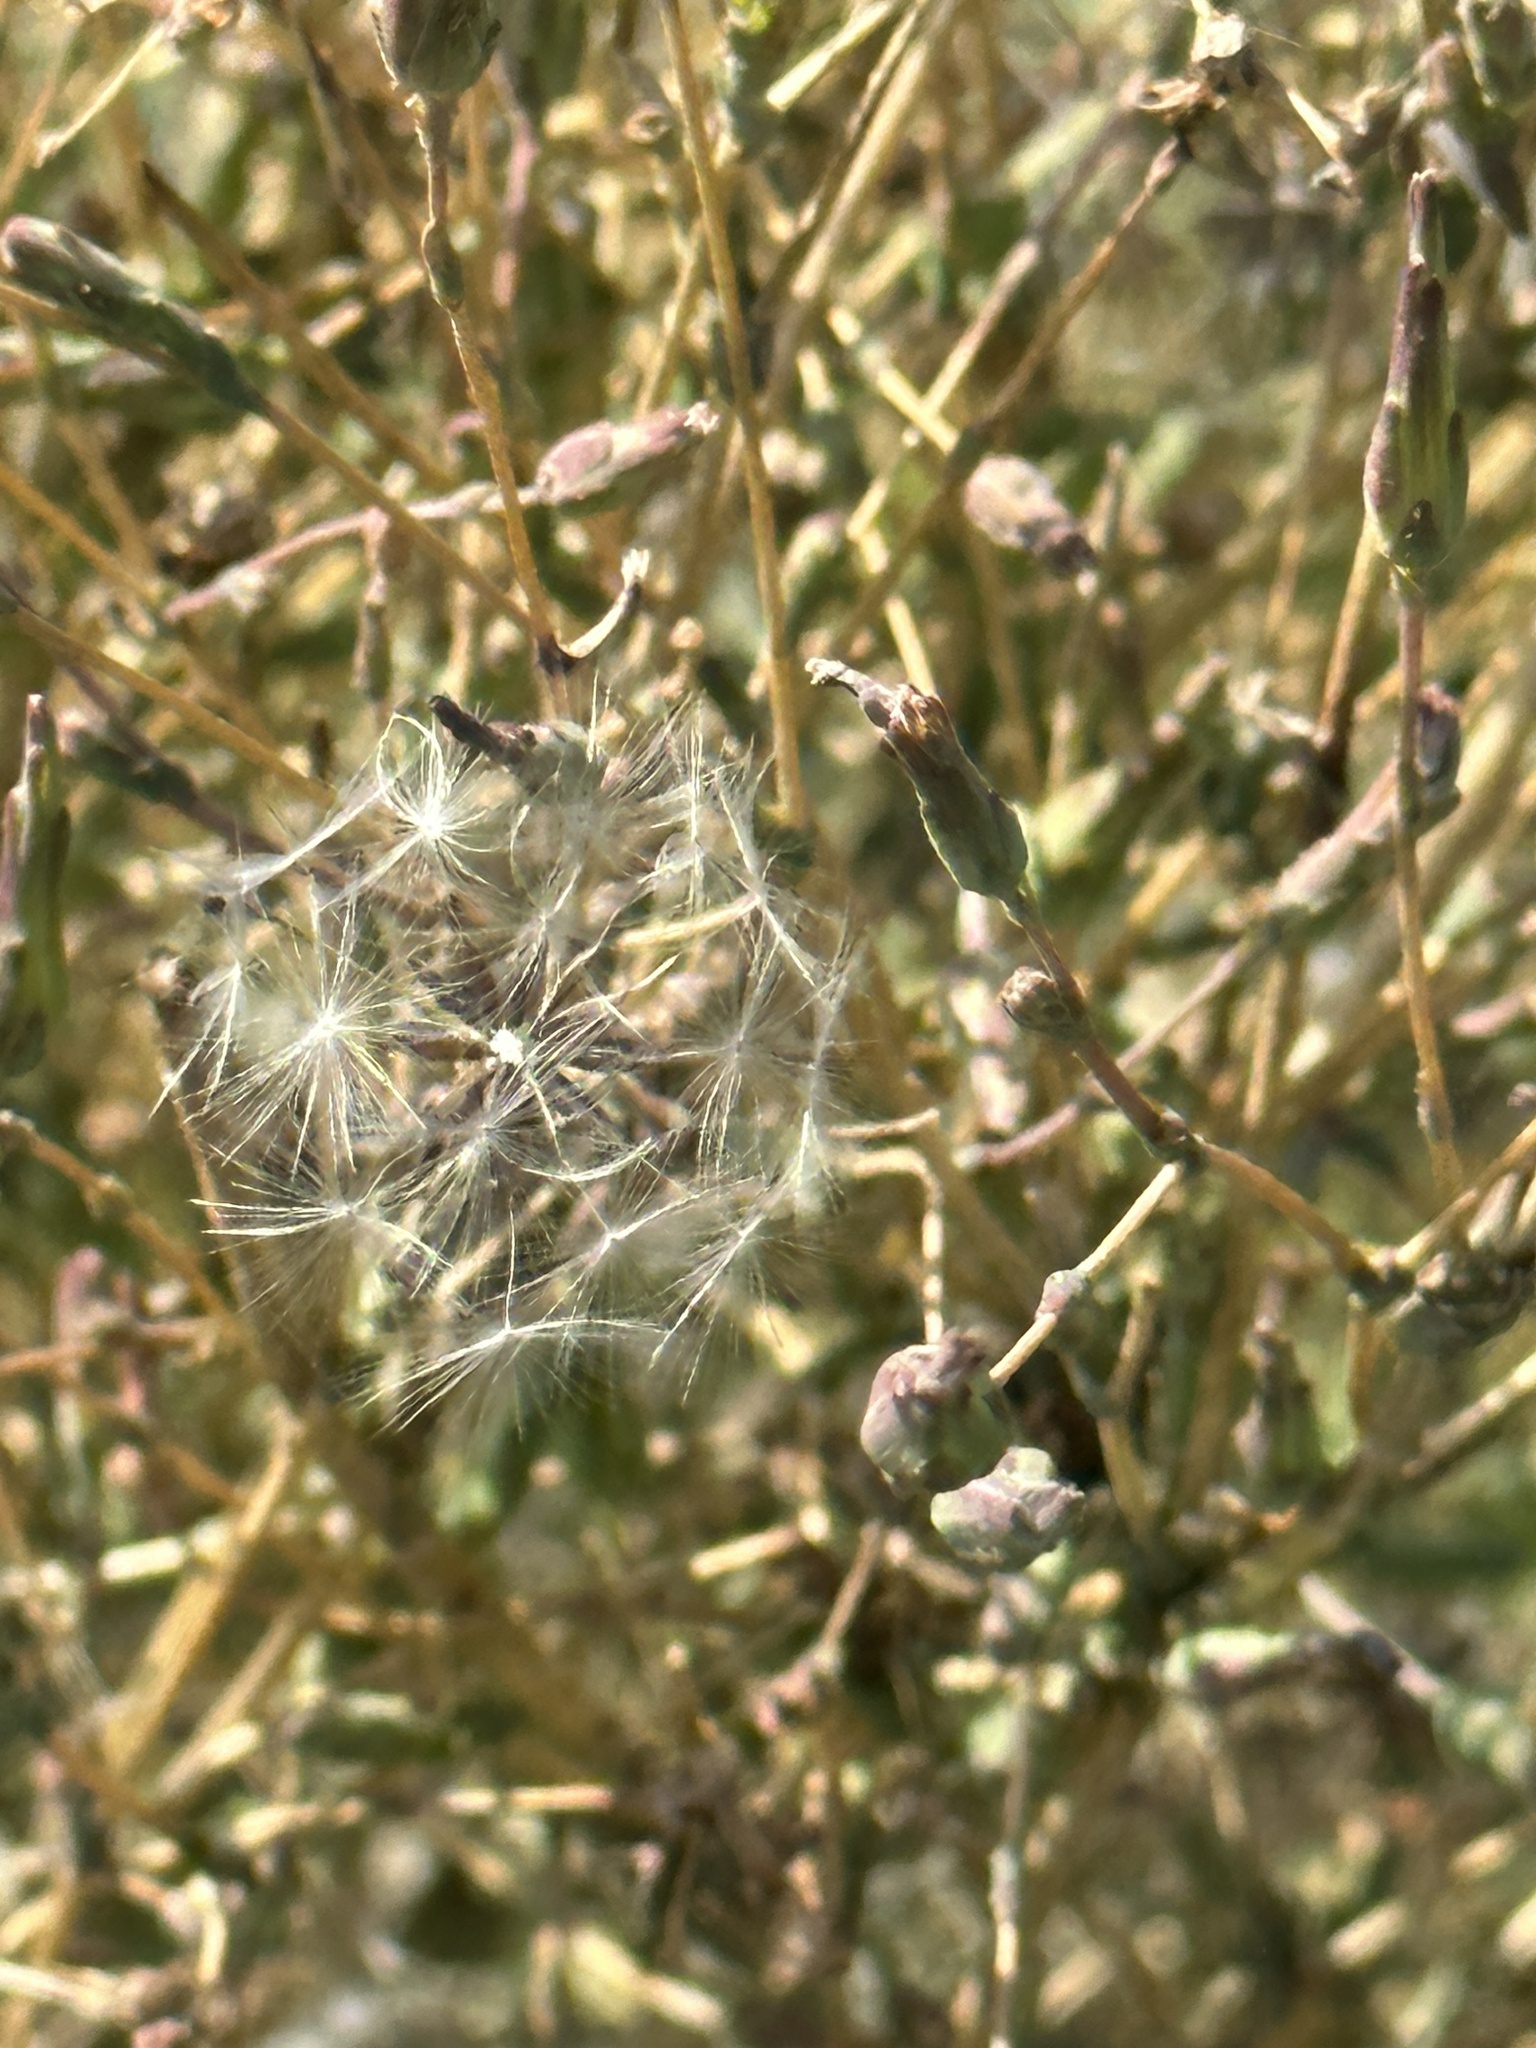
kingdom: Plantae
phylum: Tracheophyta
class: Magnoliopsida
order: Asterales
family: Asteraceae
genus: Lactuca
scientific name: Lactuca serriola
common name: Prickly lettuce
